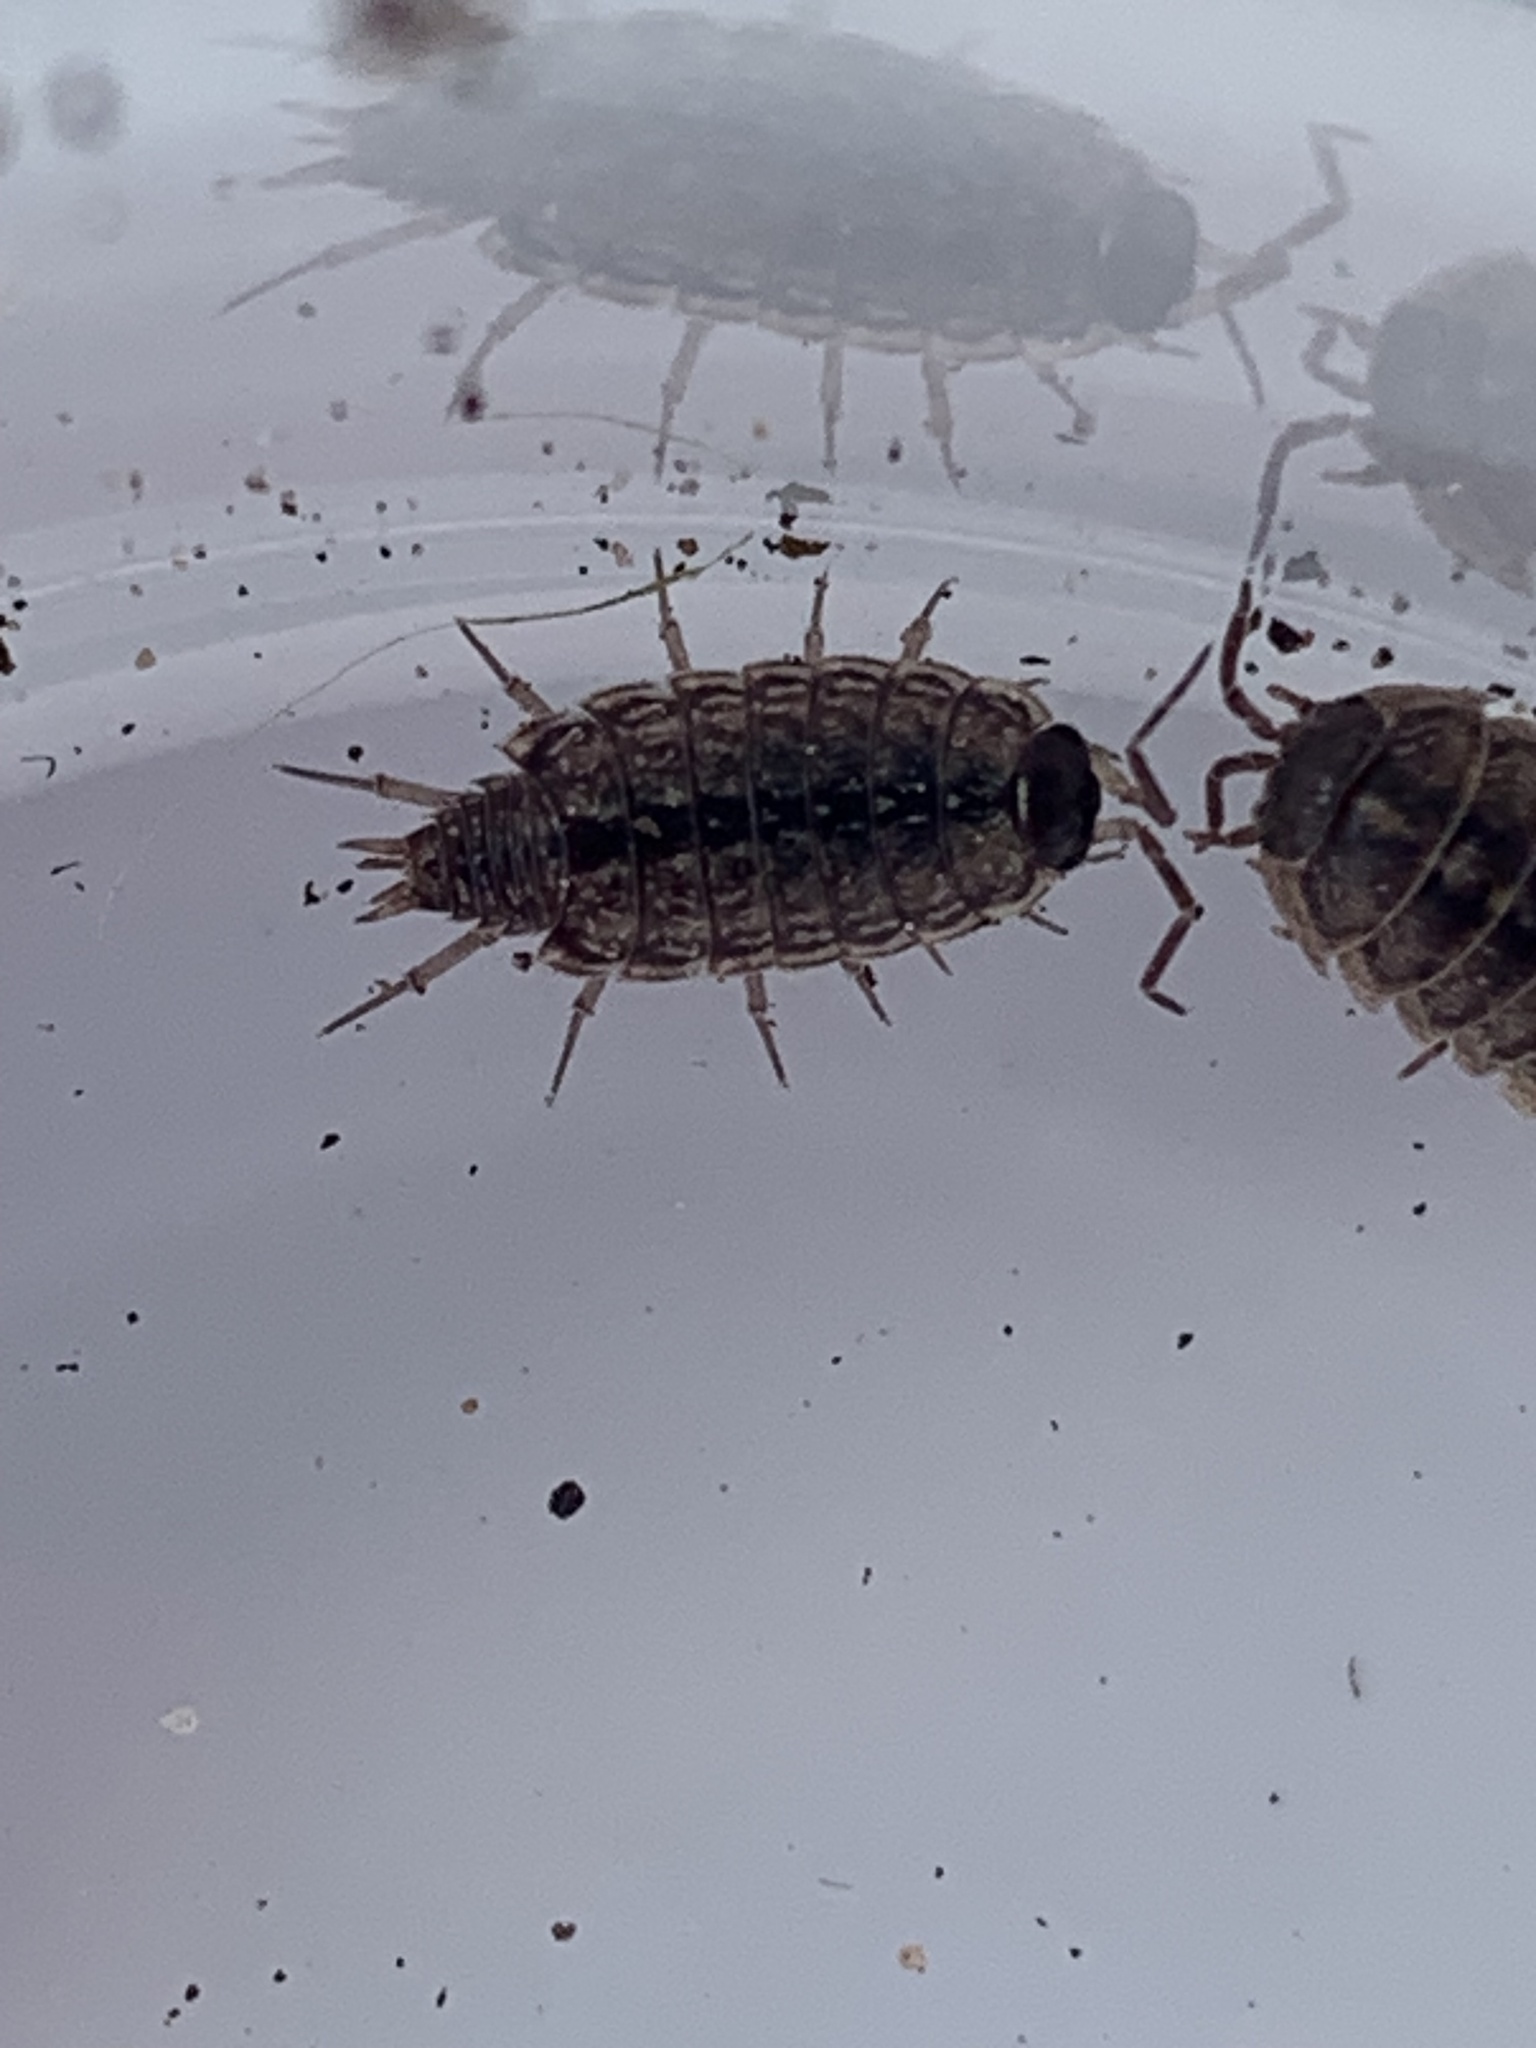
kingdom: Animalia
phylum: Arthropoda
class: Malacostraca
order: Isopoda
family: Philosciidae
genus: Philoscia
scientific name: Philoscia muscorum
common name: Common striped woodlouse
